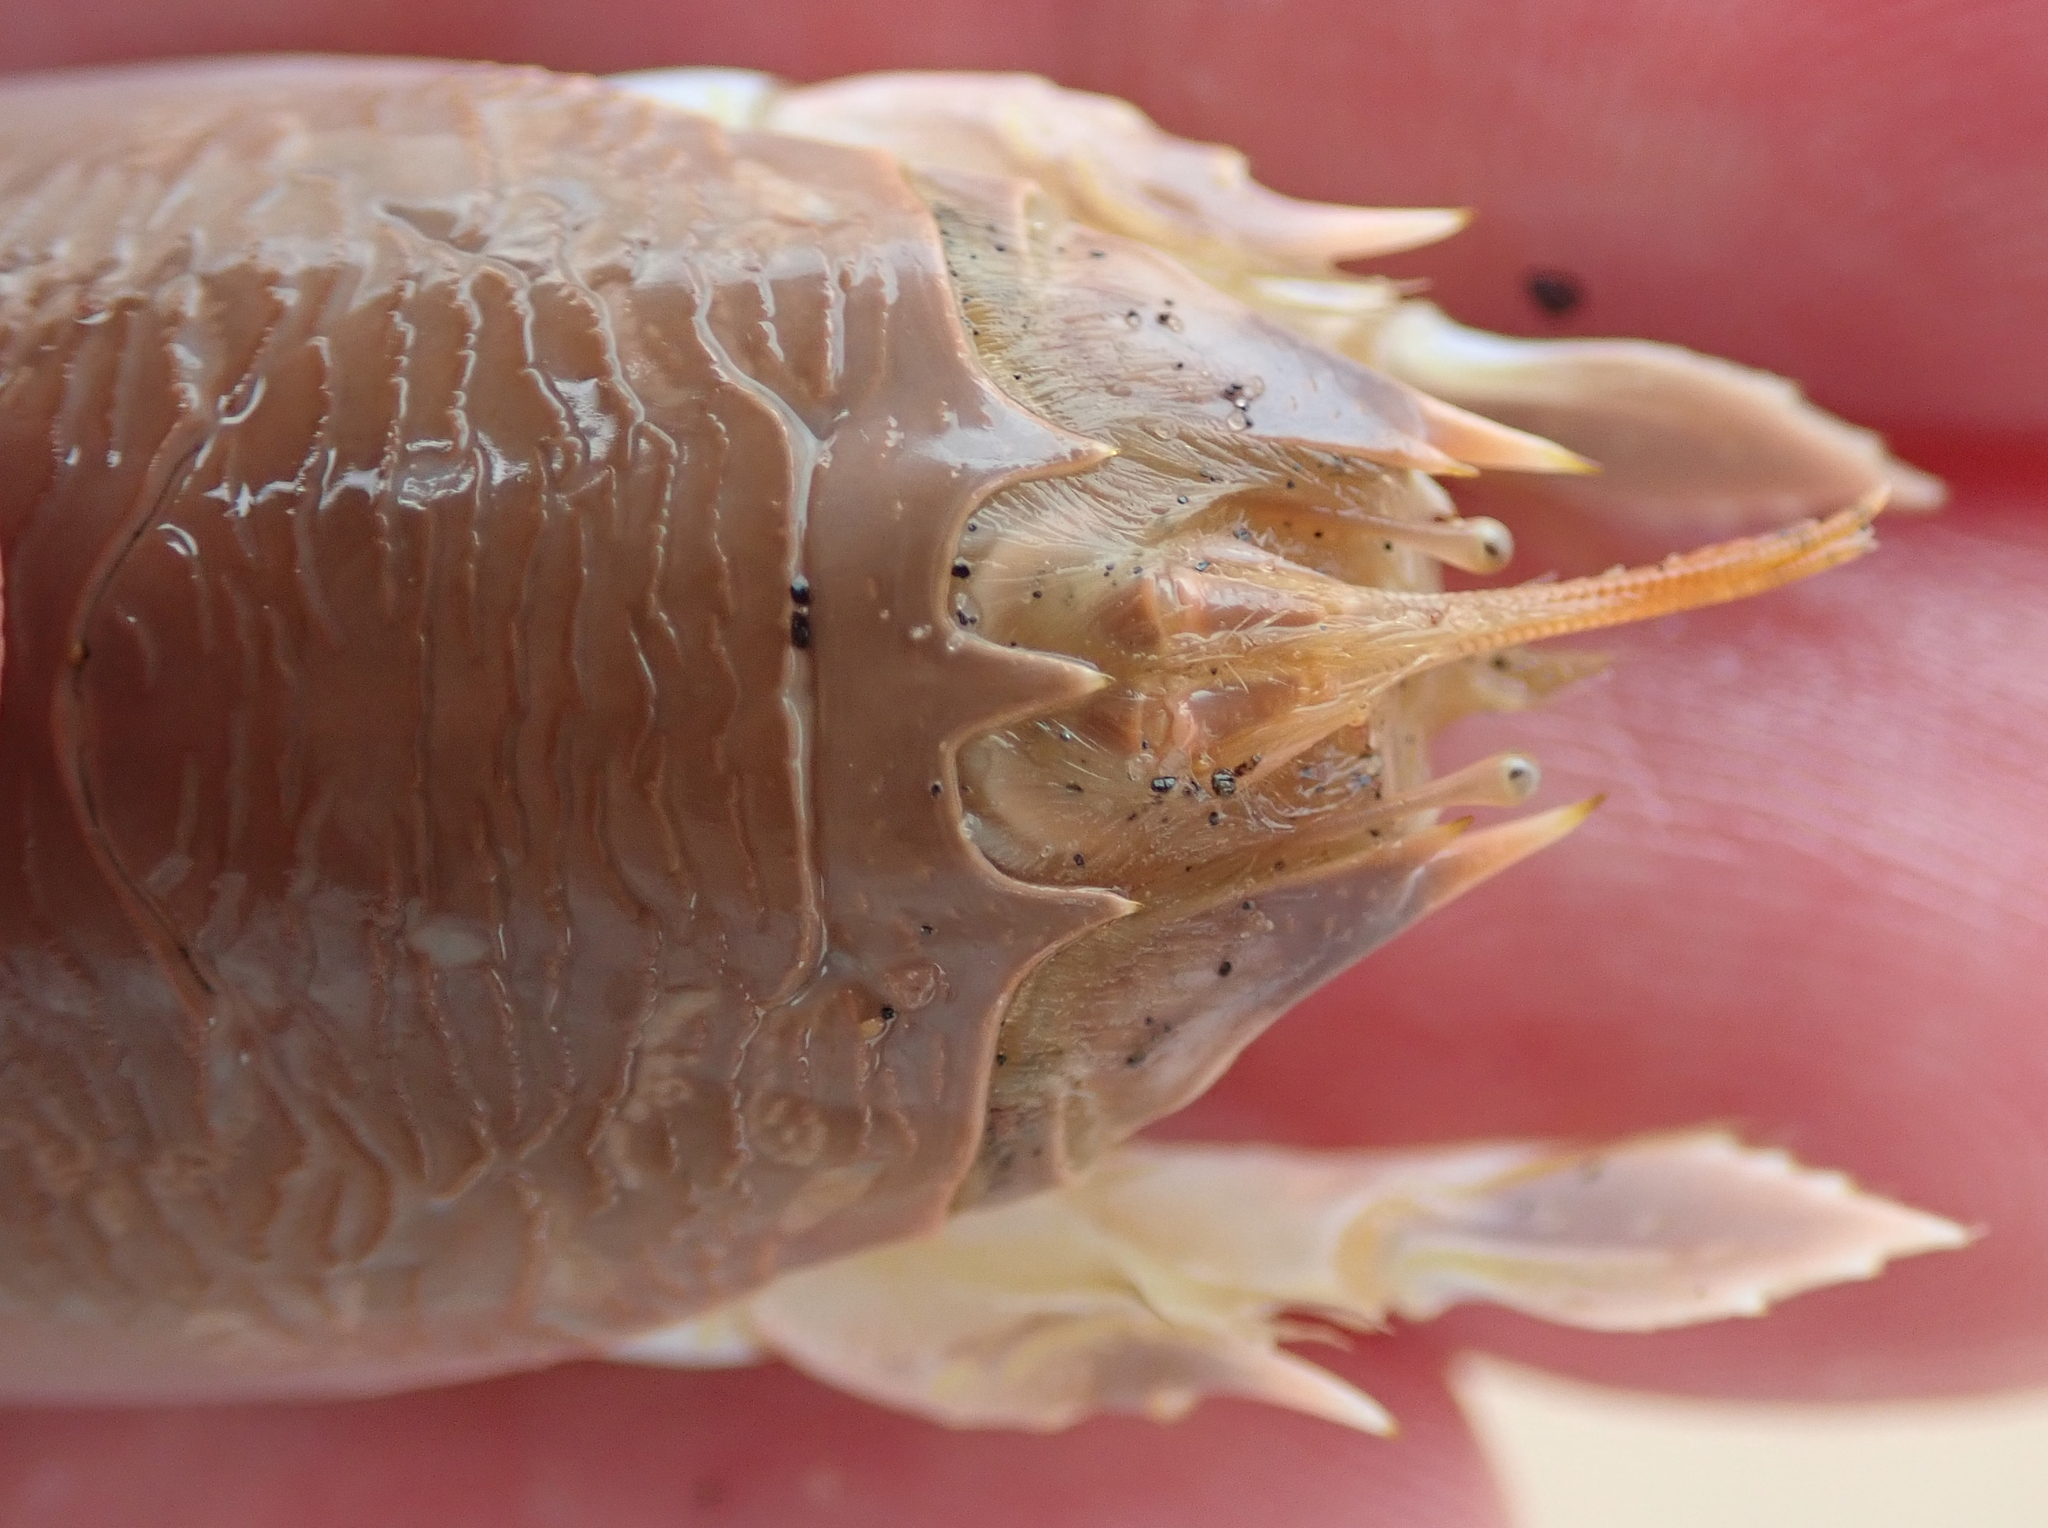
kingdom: Animalia
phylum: Arthropoda
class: Malacostraca
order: Decapoda
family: Hippidae
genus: Emerita
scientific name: Emerita austroafricana
